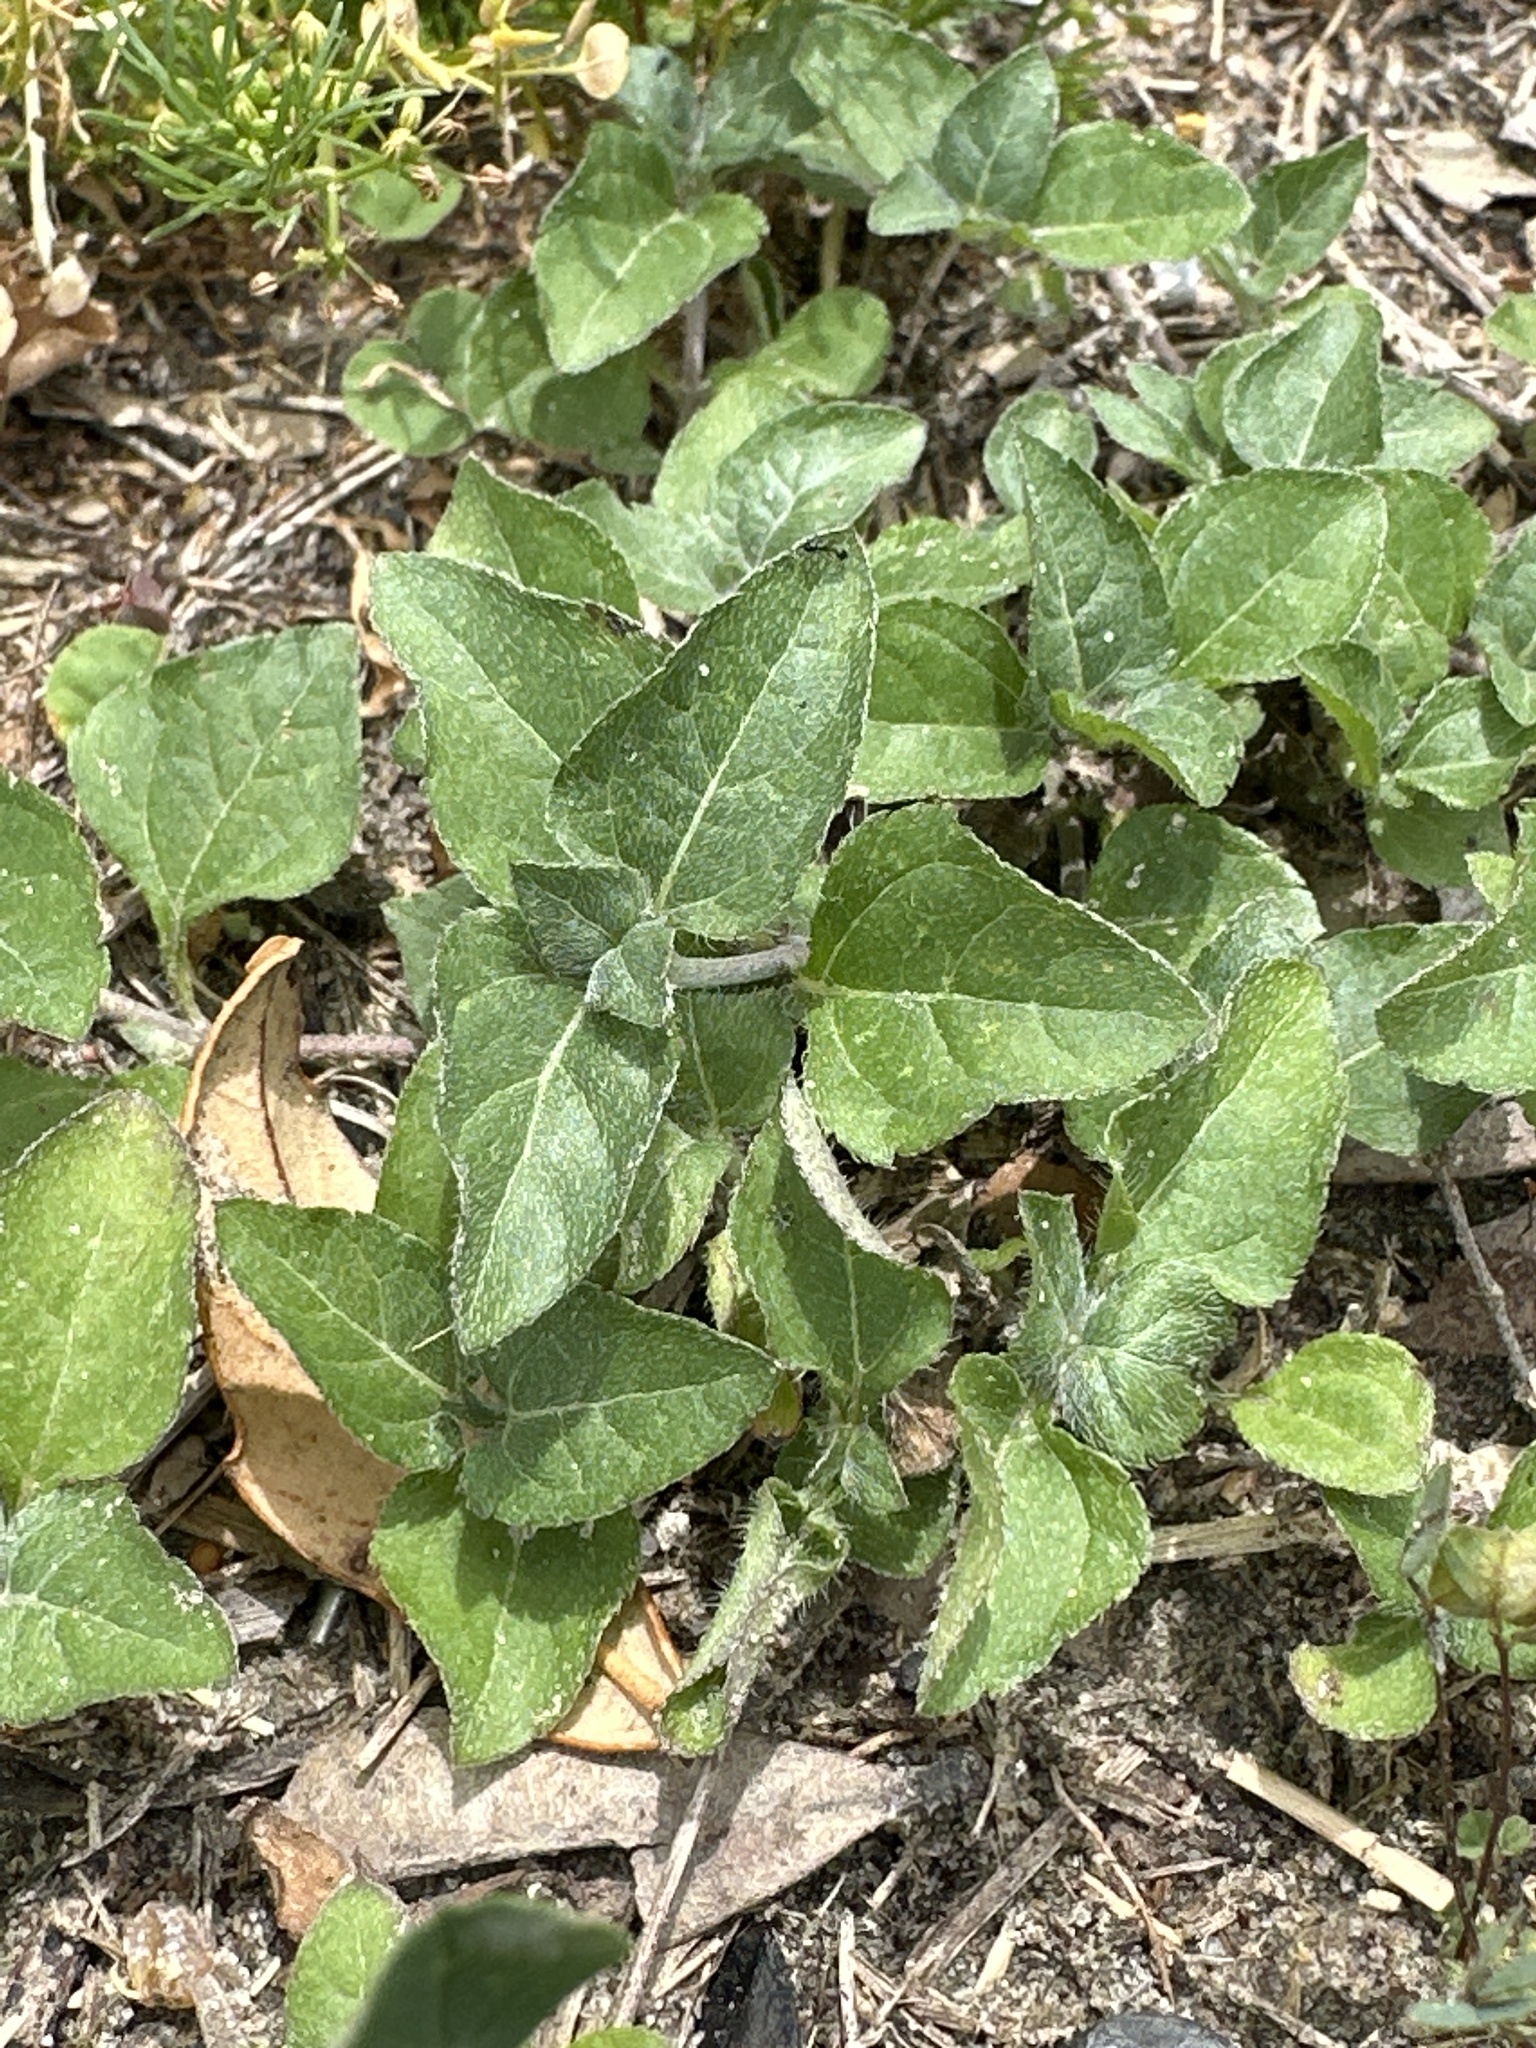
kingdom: Plantae
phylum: Tracheophyta
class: Magnoliopsida
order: Asterales
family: Asteraceae
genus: Calyptocarpus
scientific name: Calyptocarpus vialis
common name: Straggler daisy
